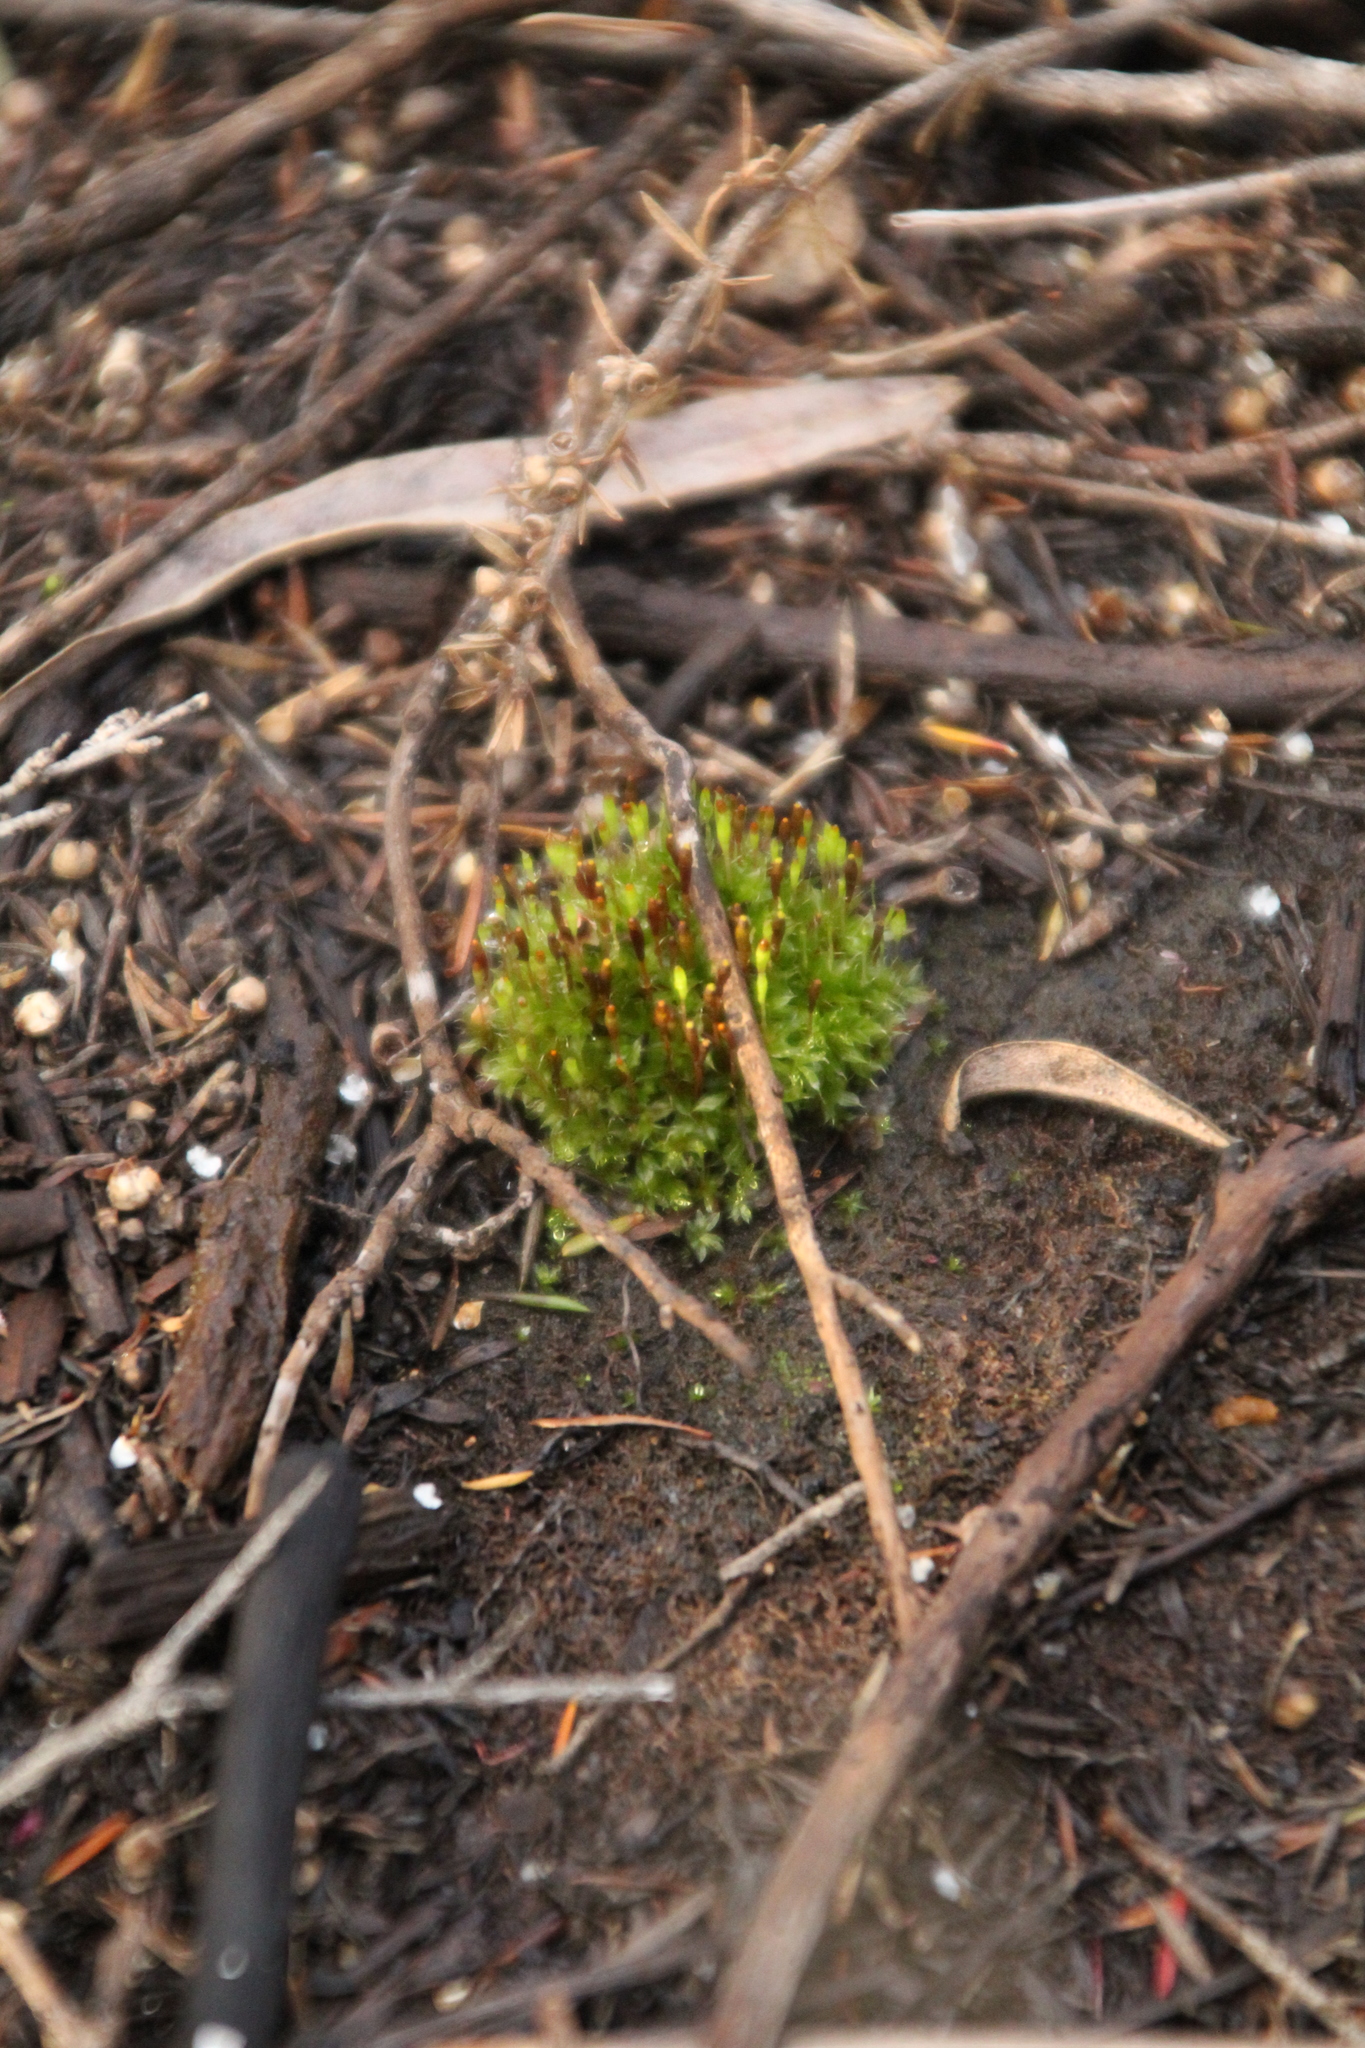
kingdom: Plantae
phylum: Bryophyta
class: Bryopsida
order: Splachnales
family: Splachnaceae
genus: Tayloria
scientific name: Tayloria octoblephara
